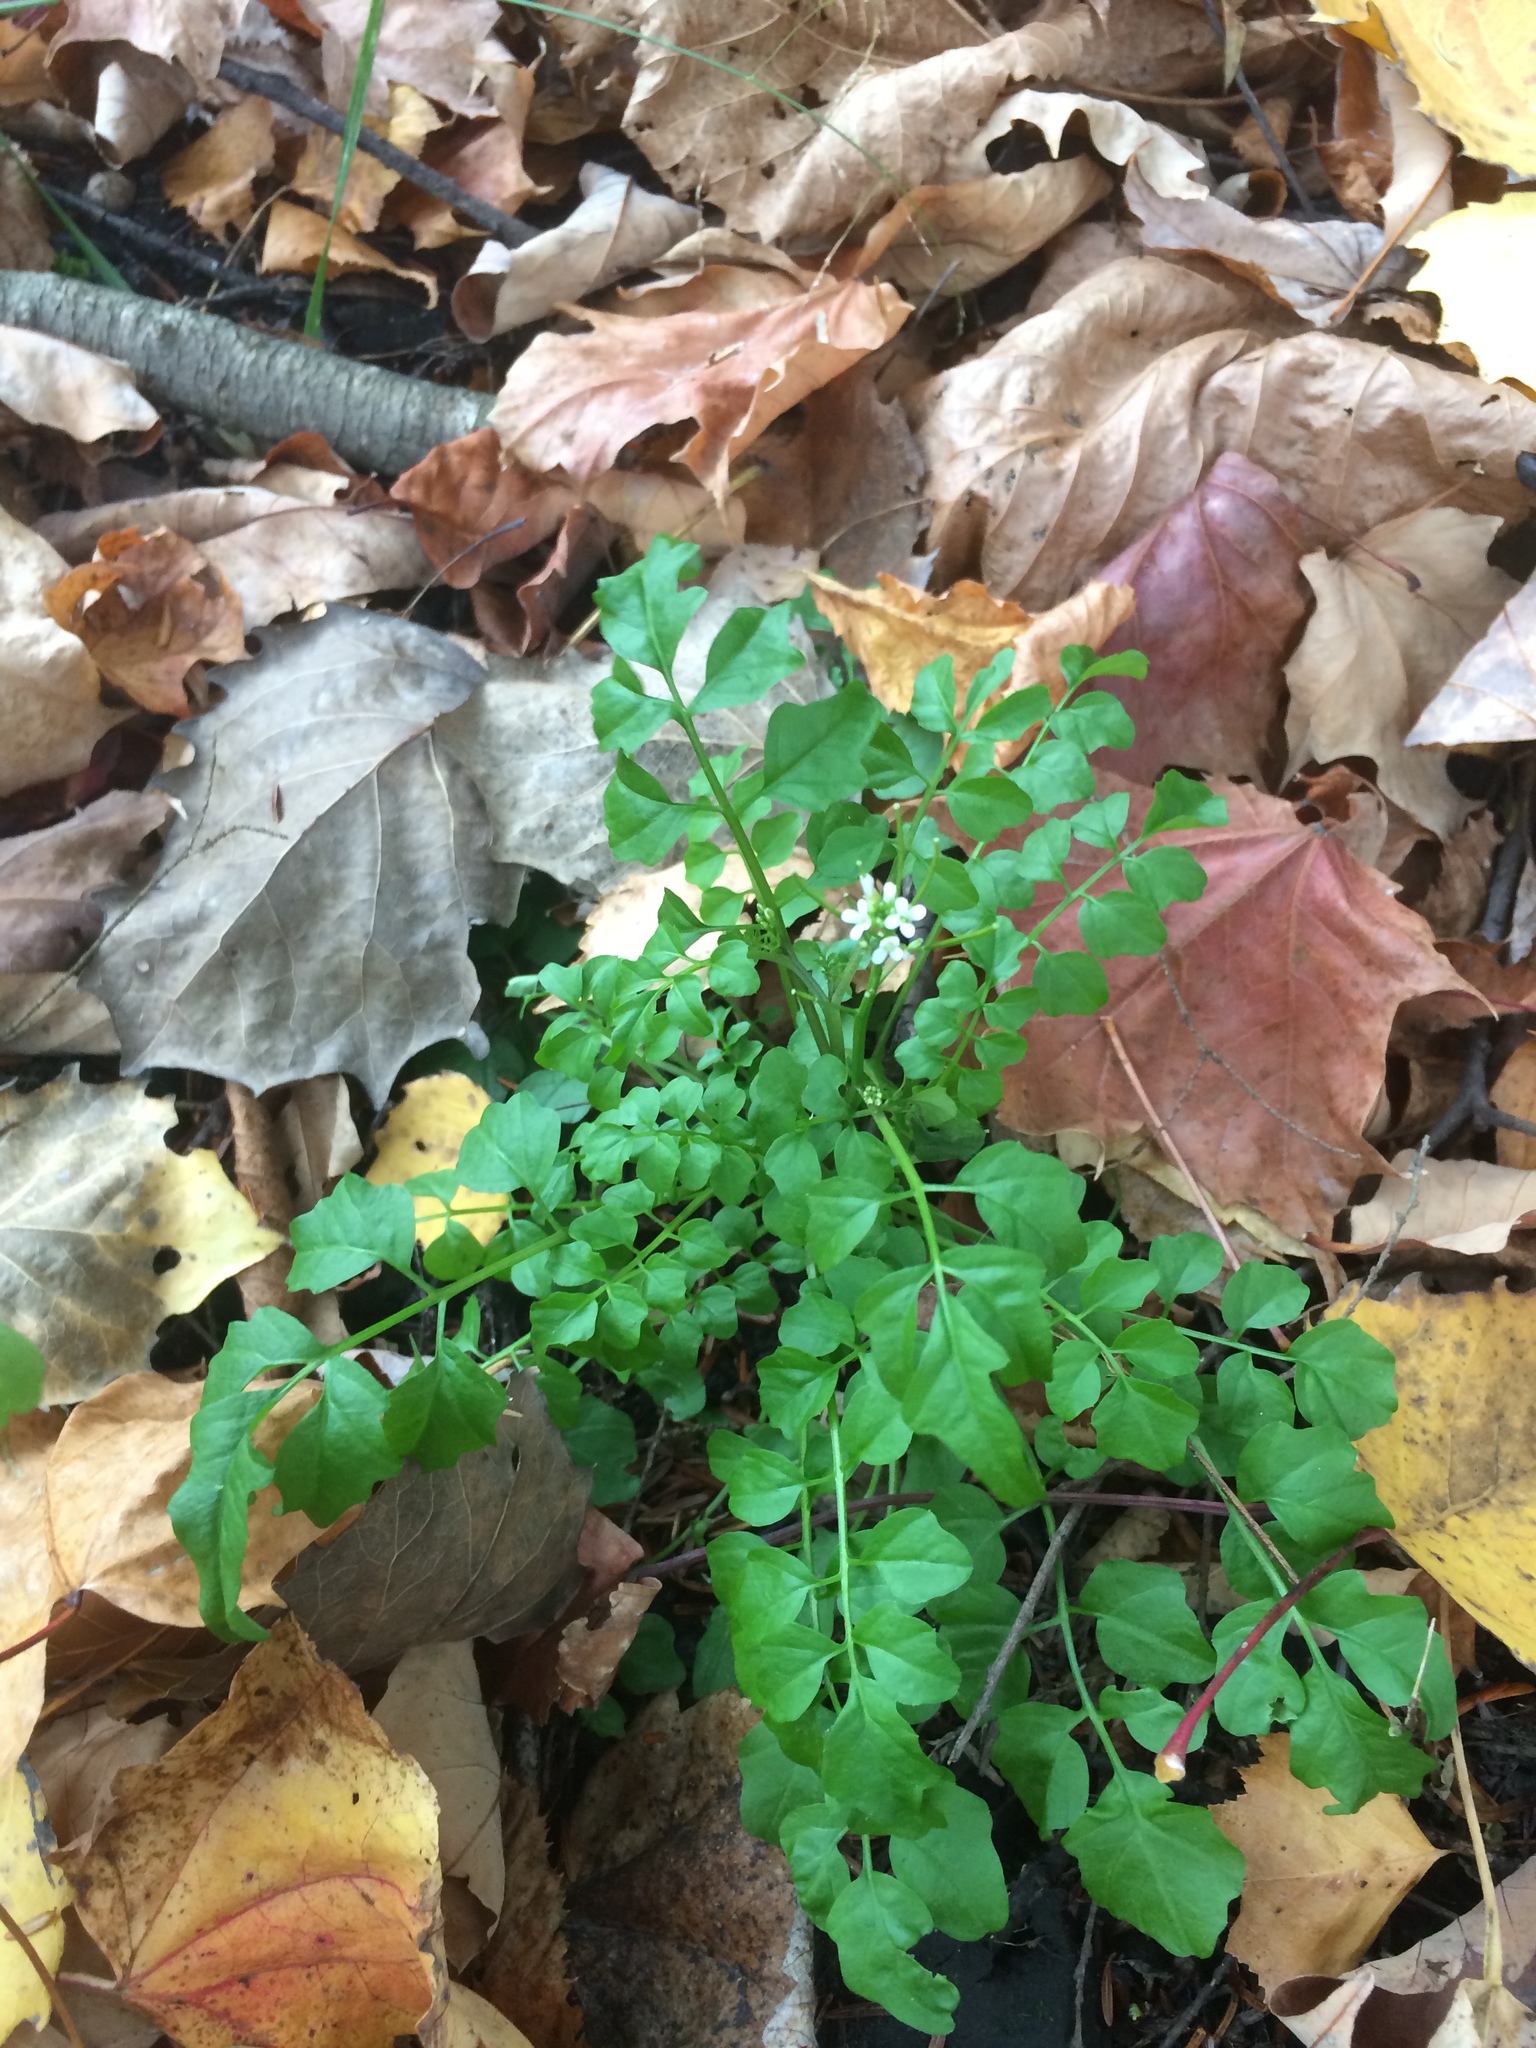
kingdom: Plantae
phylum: Tracheophyta
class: Magnoliopsida
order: Brassicales
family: Brassicaceae
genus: Cardamine
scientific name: Cardamine pensylvanica
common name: Pennsylvania bittercress
